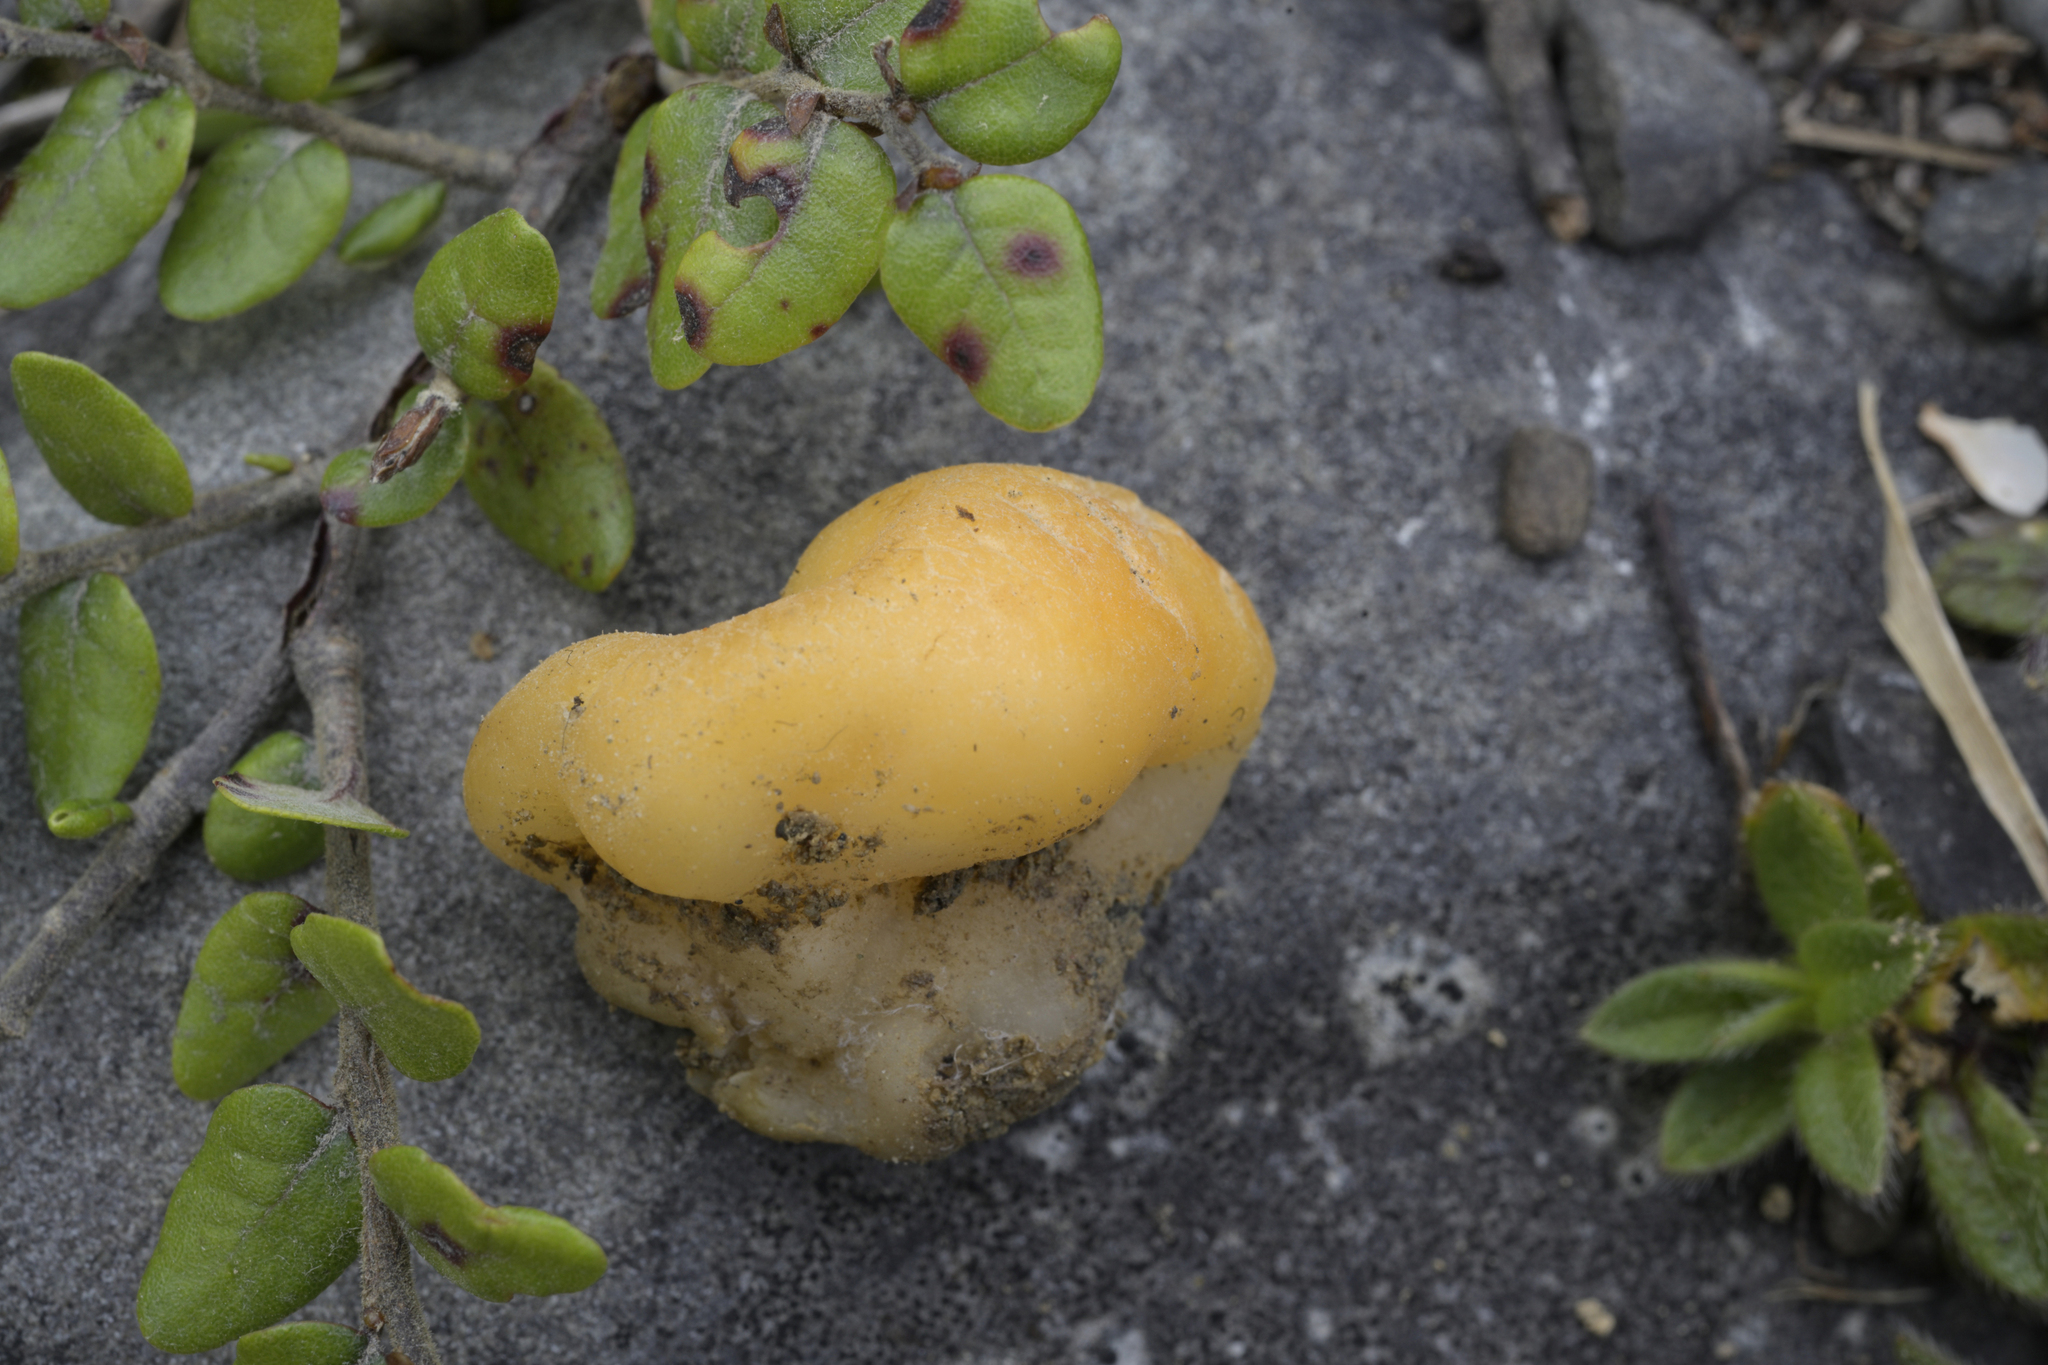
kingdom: Fungi
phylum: Ascomycota
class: Pezizomycetes
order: Pezizales
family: Pezizaceae
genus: Peziza
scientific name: Peziza
